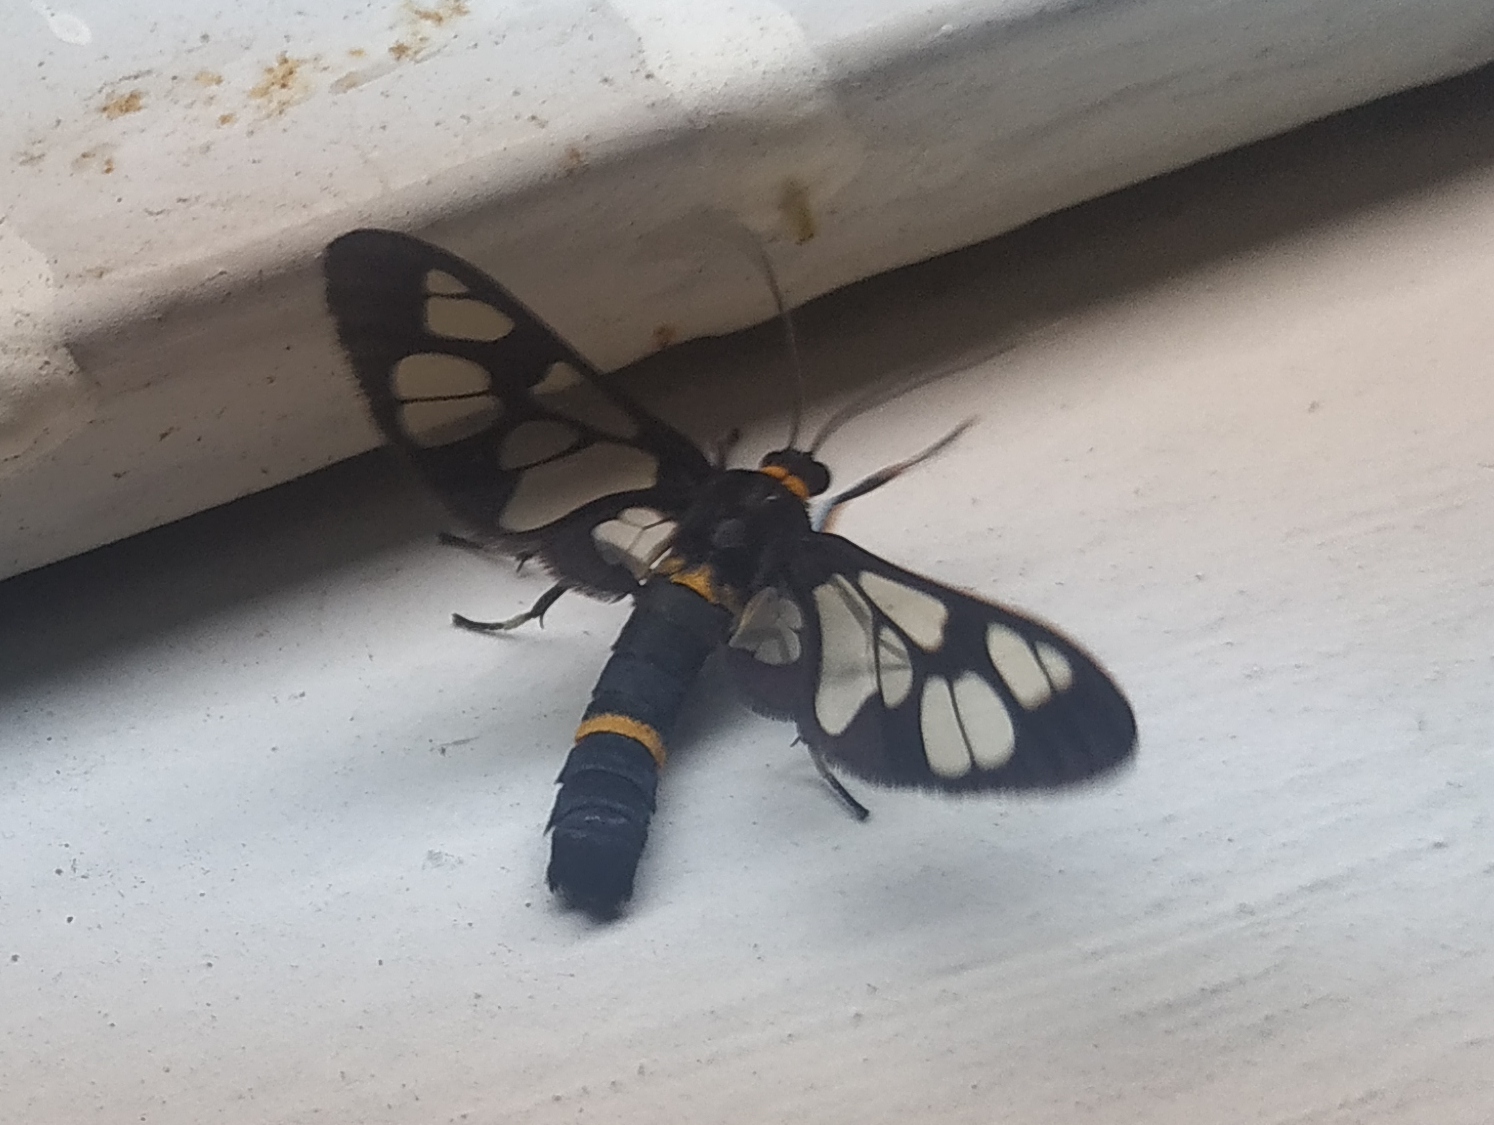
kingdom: Animalia
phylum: Arthropoda
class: Insecta
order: Lepidoptera
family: Erebidae
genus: Syntomoides
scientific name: Syntomoides imaon
